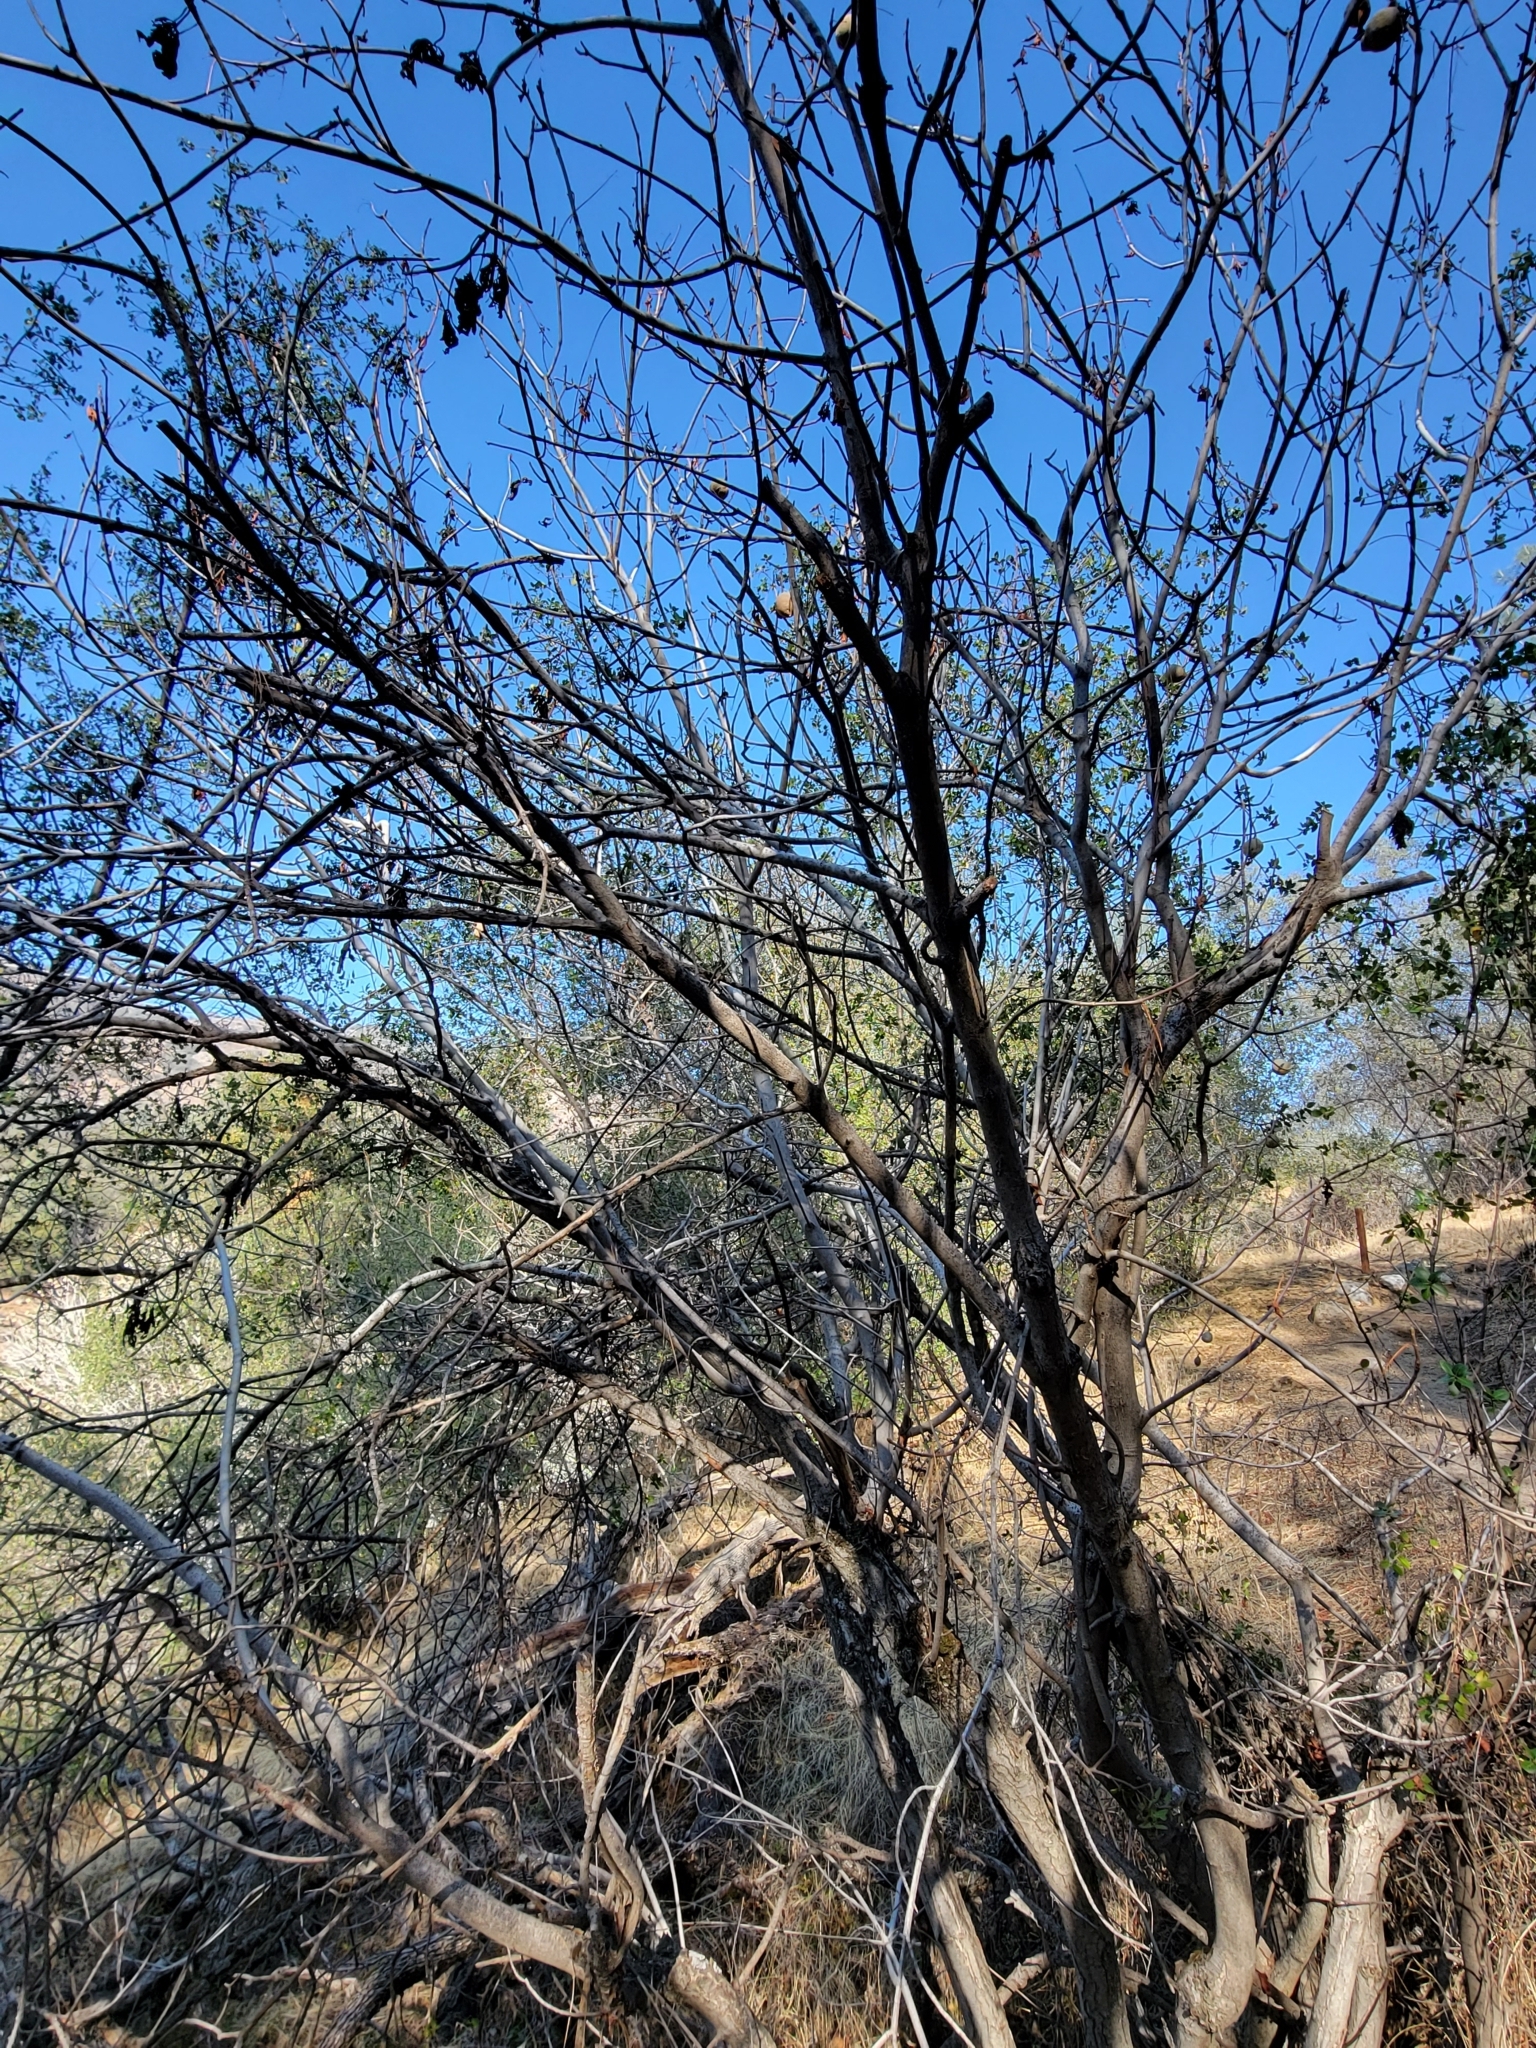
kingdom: Plantae
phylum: Tracheophyta
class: Magnoliopsida
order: Sapindales
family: Sapindaceae
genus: Aesculus
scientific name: Aesculus californica
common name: California buckeye
